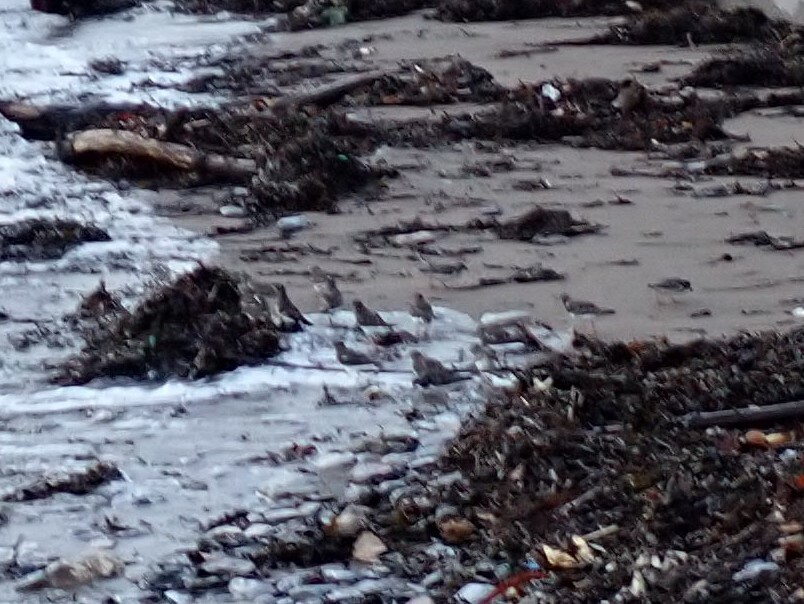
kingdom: Animalia
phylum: Chordata
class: Aves
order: Charadriiformes
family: Scolopacidae
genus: Arenaria
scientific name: Arenaria interpres
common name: Ruddy turnstone
